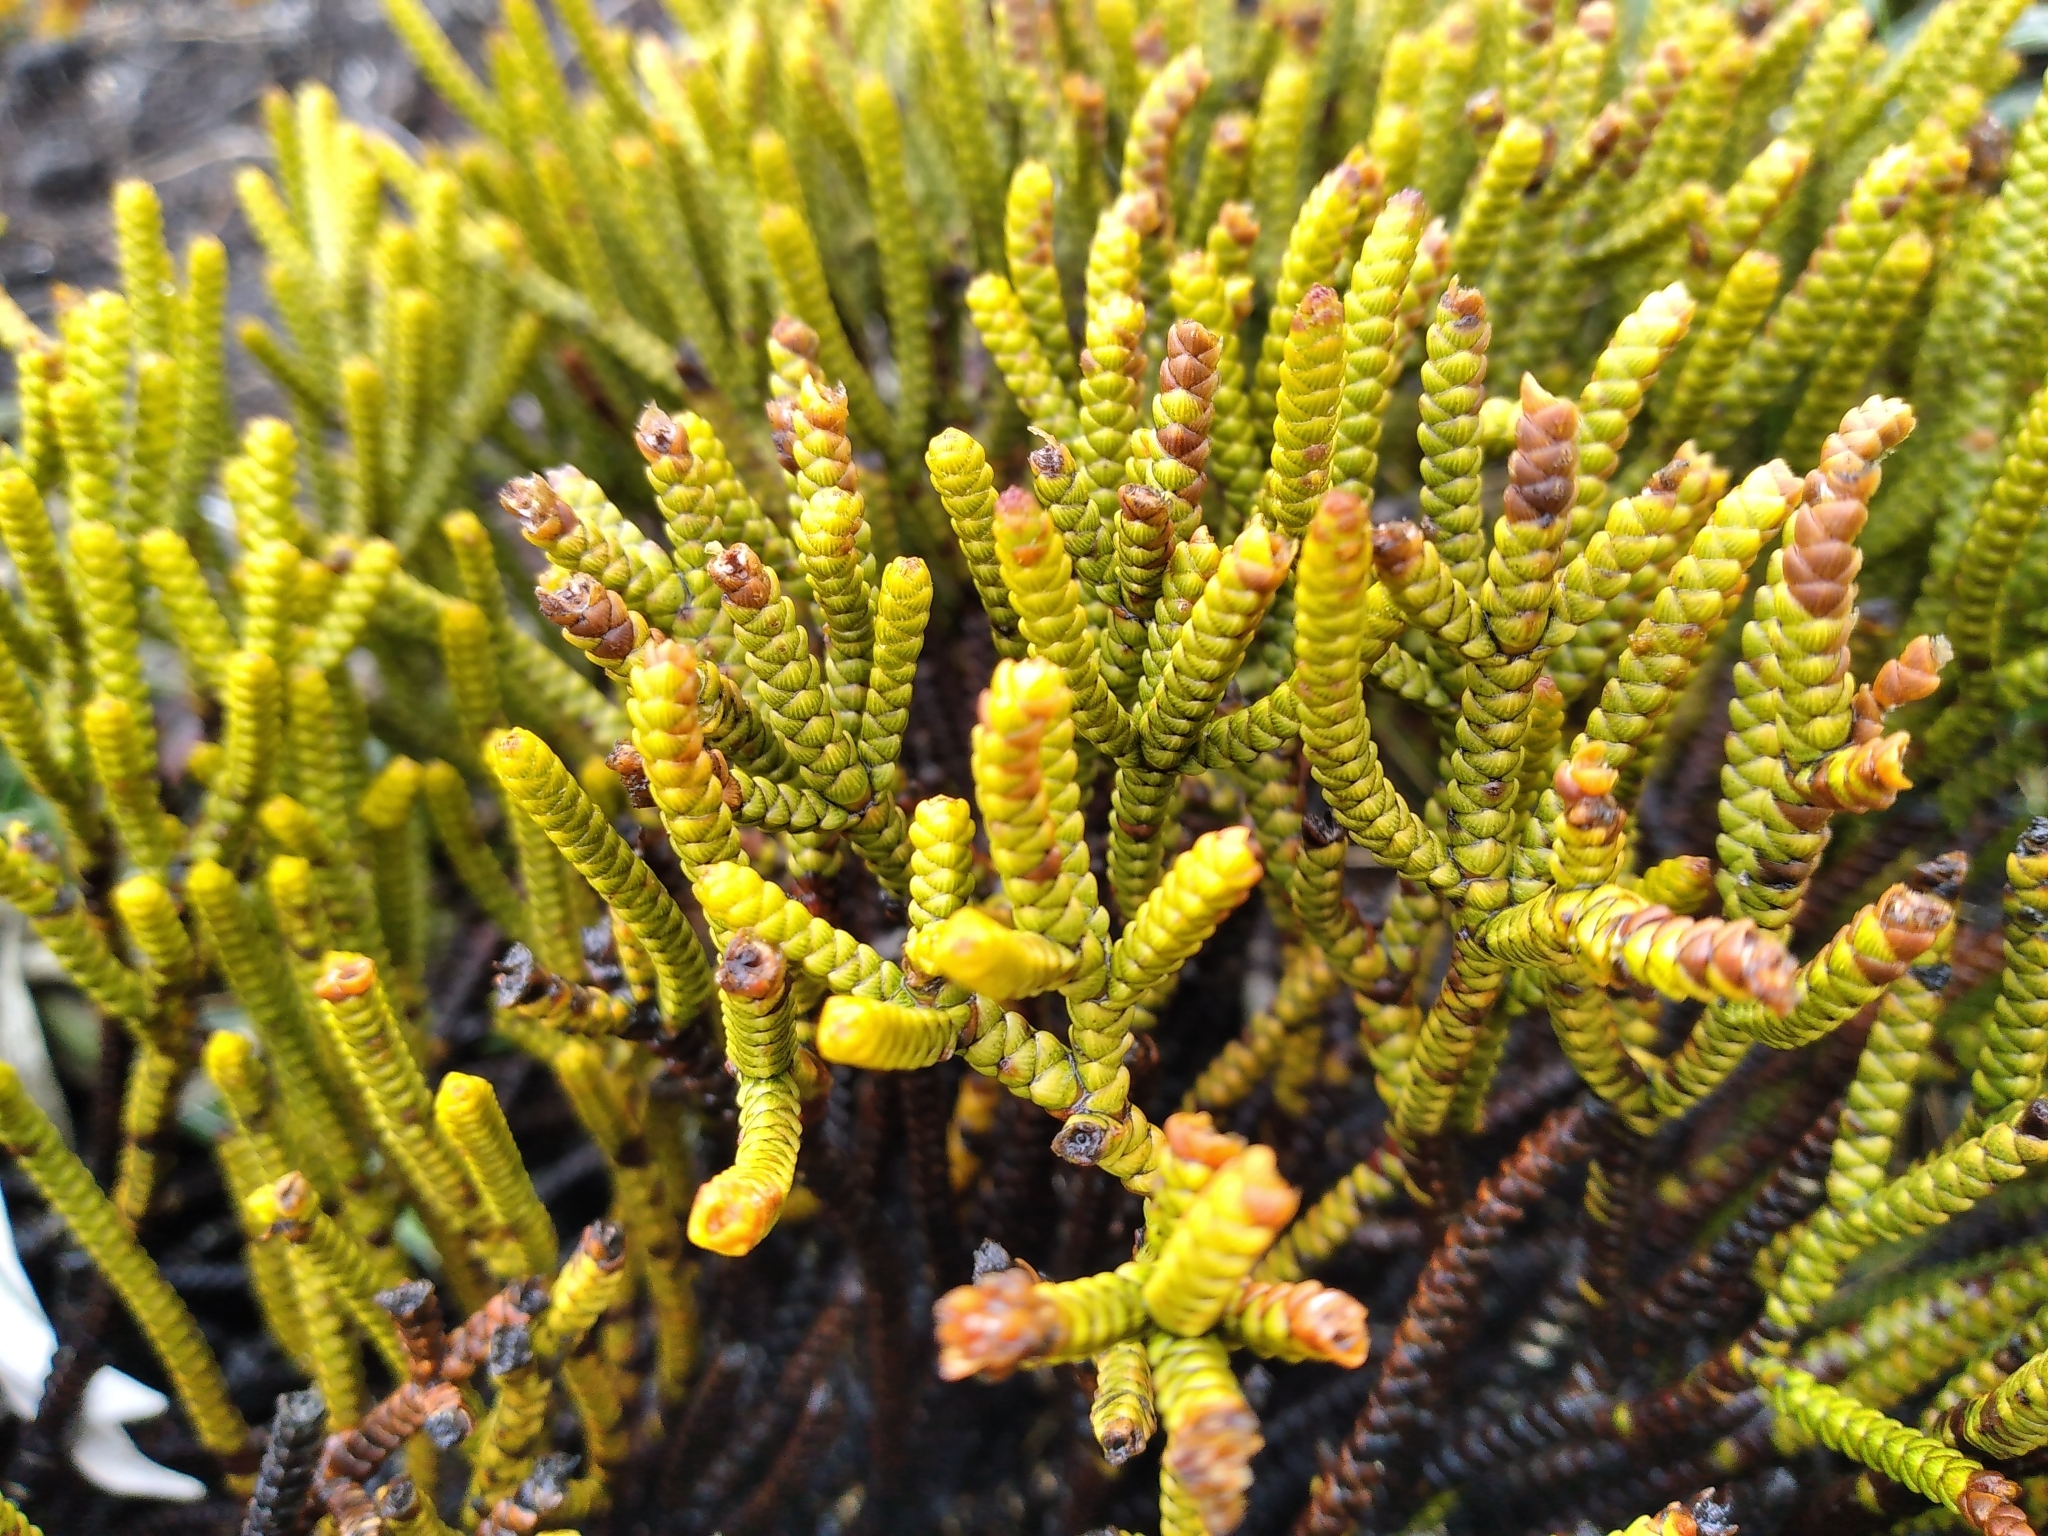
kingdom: Plantae
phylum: Tracheophyta
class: Magnoliopsida
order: Lamiales
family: Plantaginaceae
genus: Veronica
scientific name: Veronica poppelwellii
